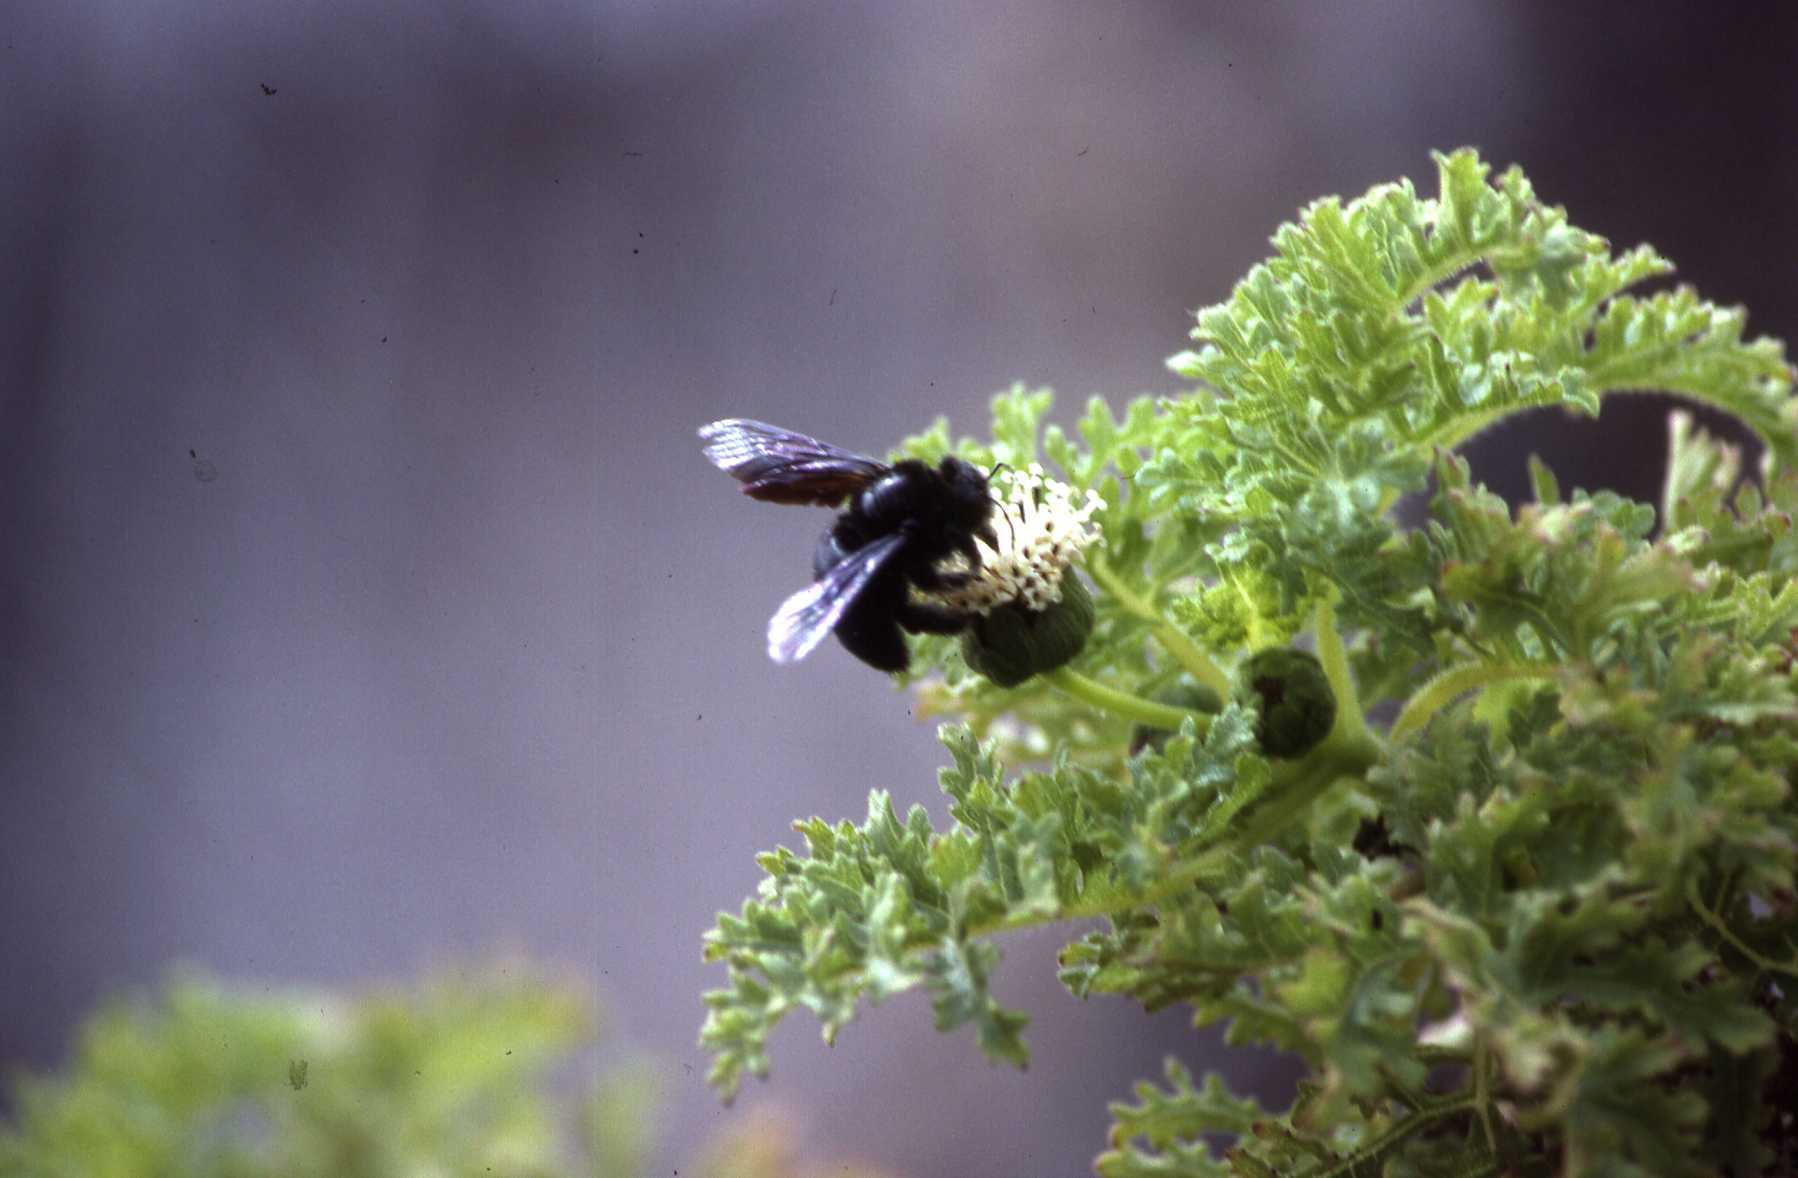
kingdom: Animalia
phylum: Arthropoda
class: Insecta
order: Hymenoptera
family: Apidae
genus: Xylocopa
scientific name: Xylocopa darwini
